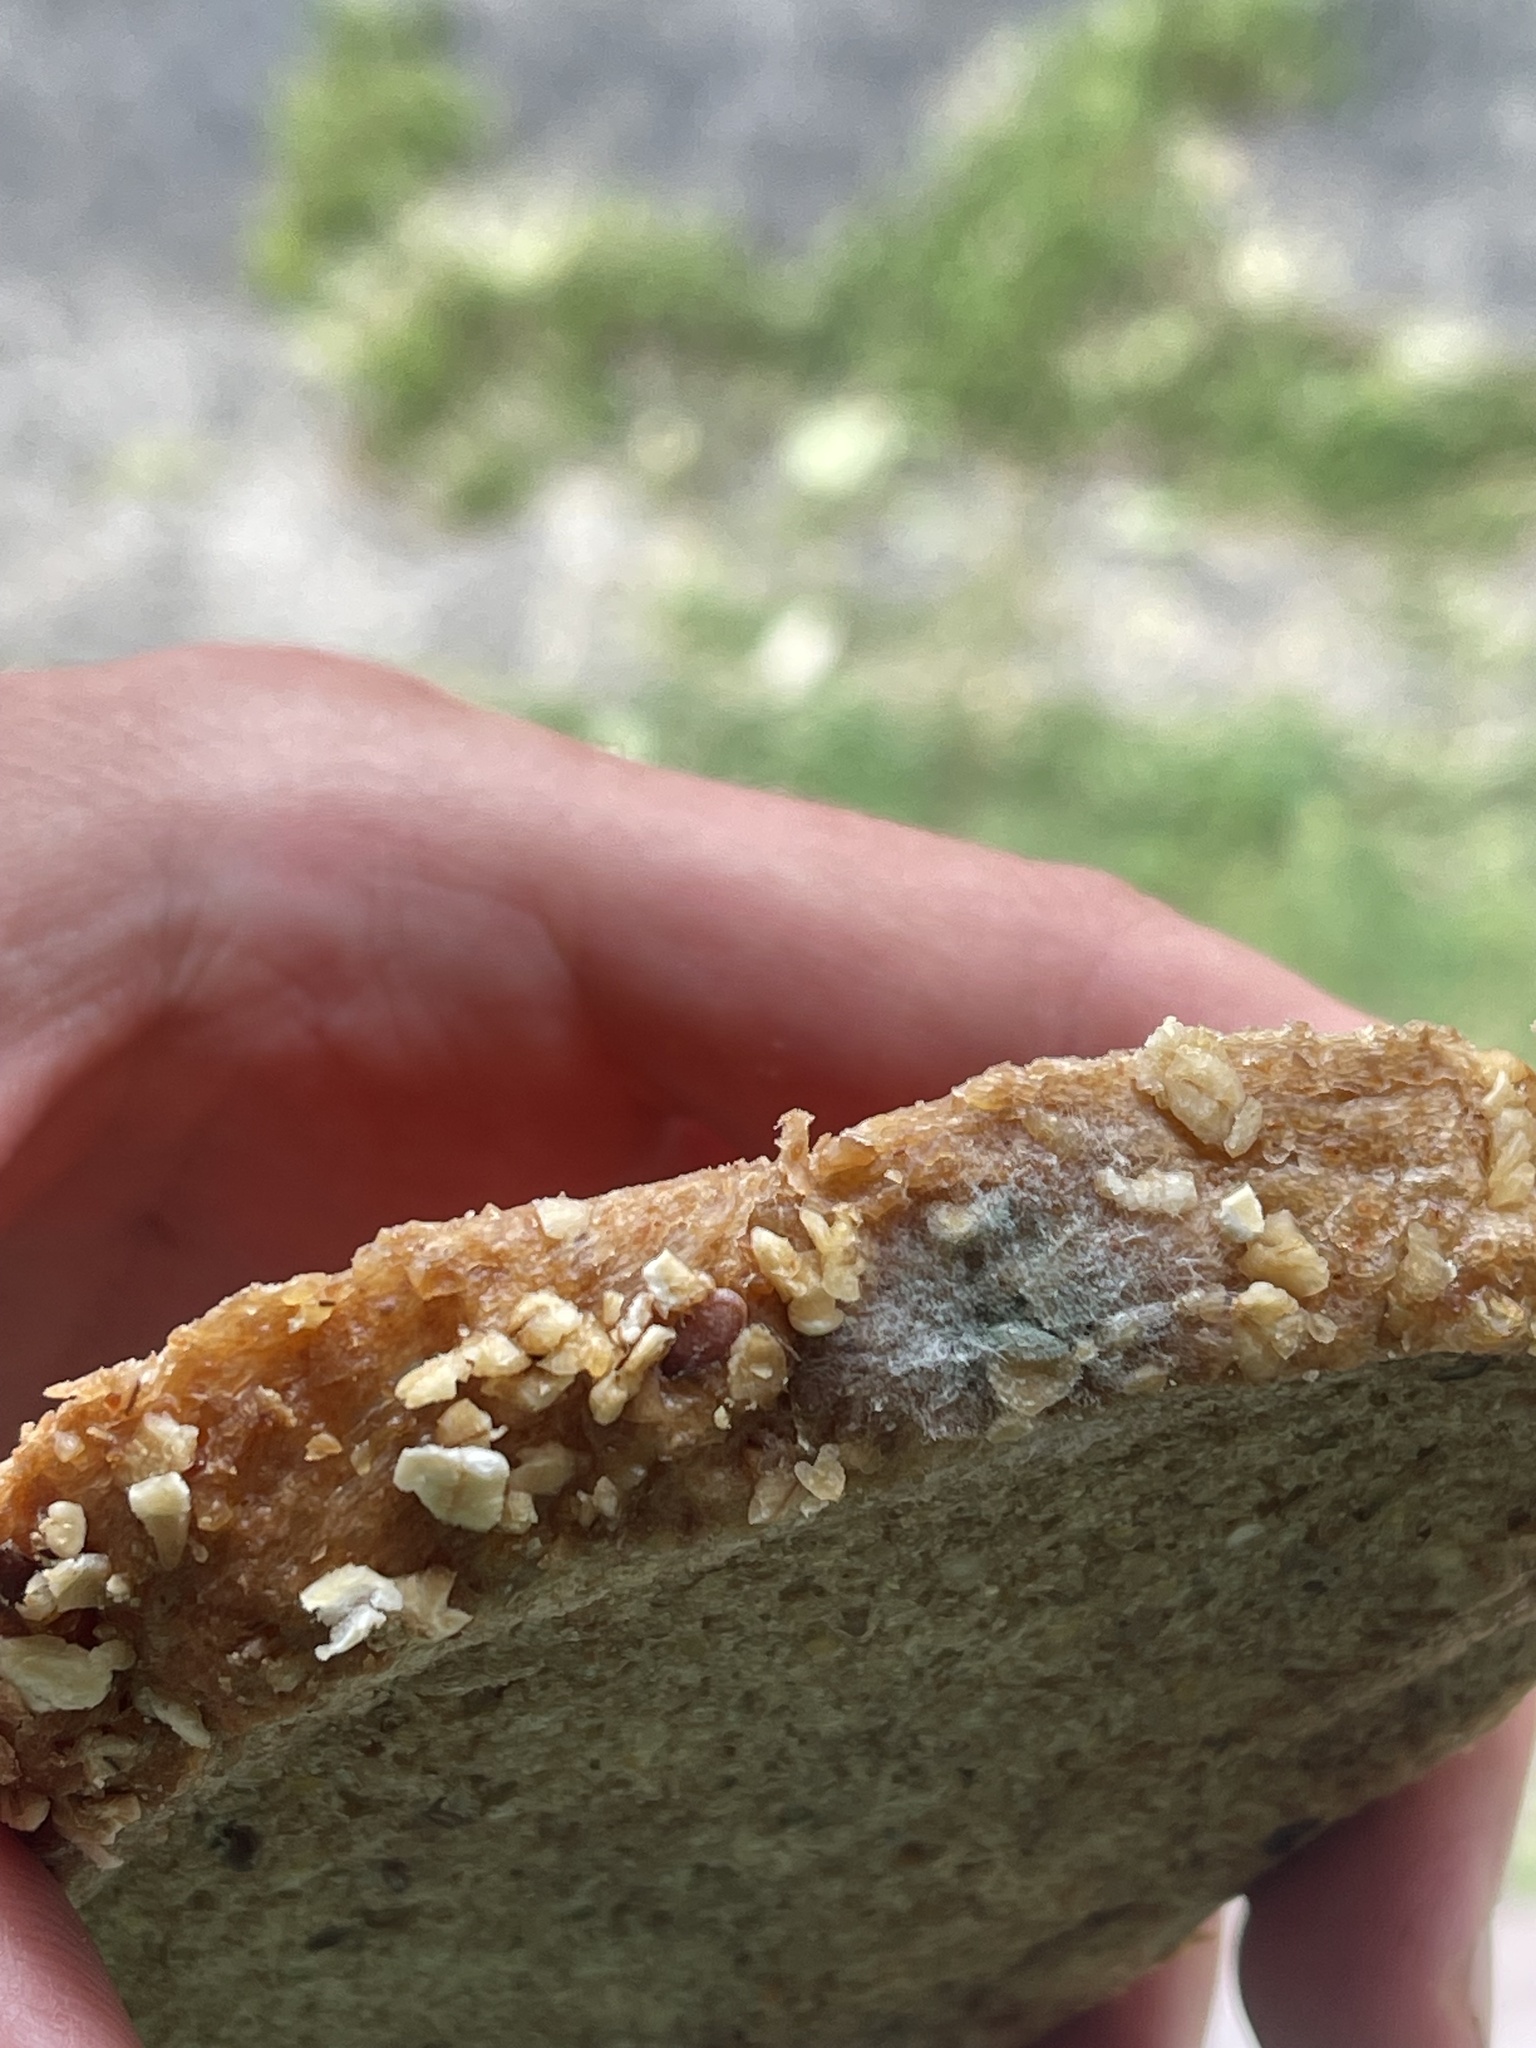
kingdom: Fungi
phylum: Mucoromycota
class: Mucoromycetes
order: Mucorales
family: Rhizopodaceae
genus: Rhizopus
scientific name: Rhizopus stolonifer
